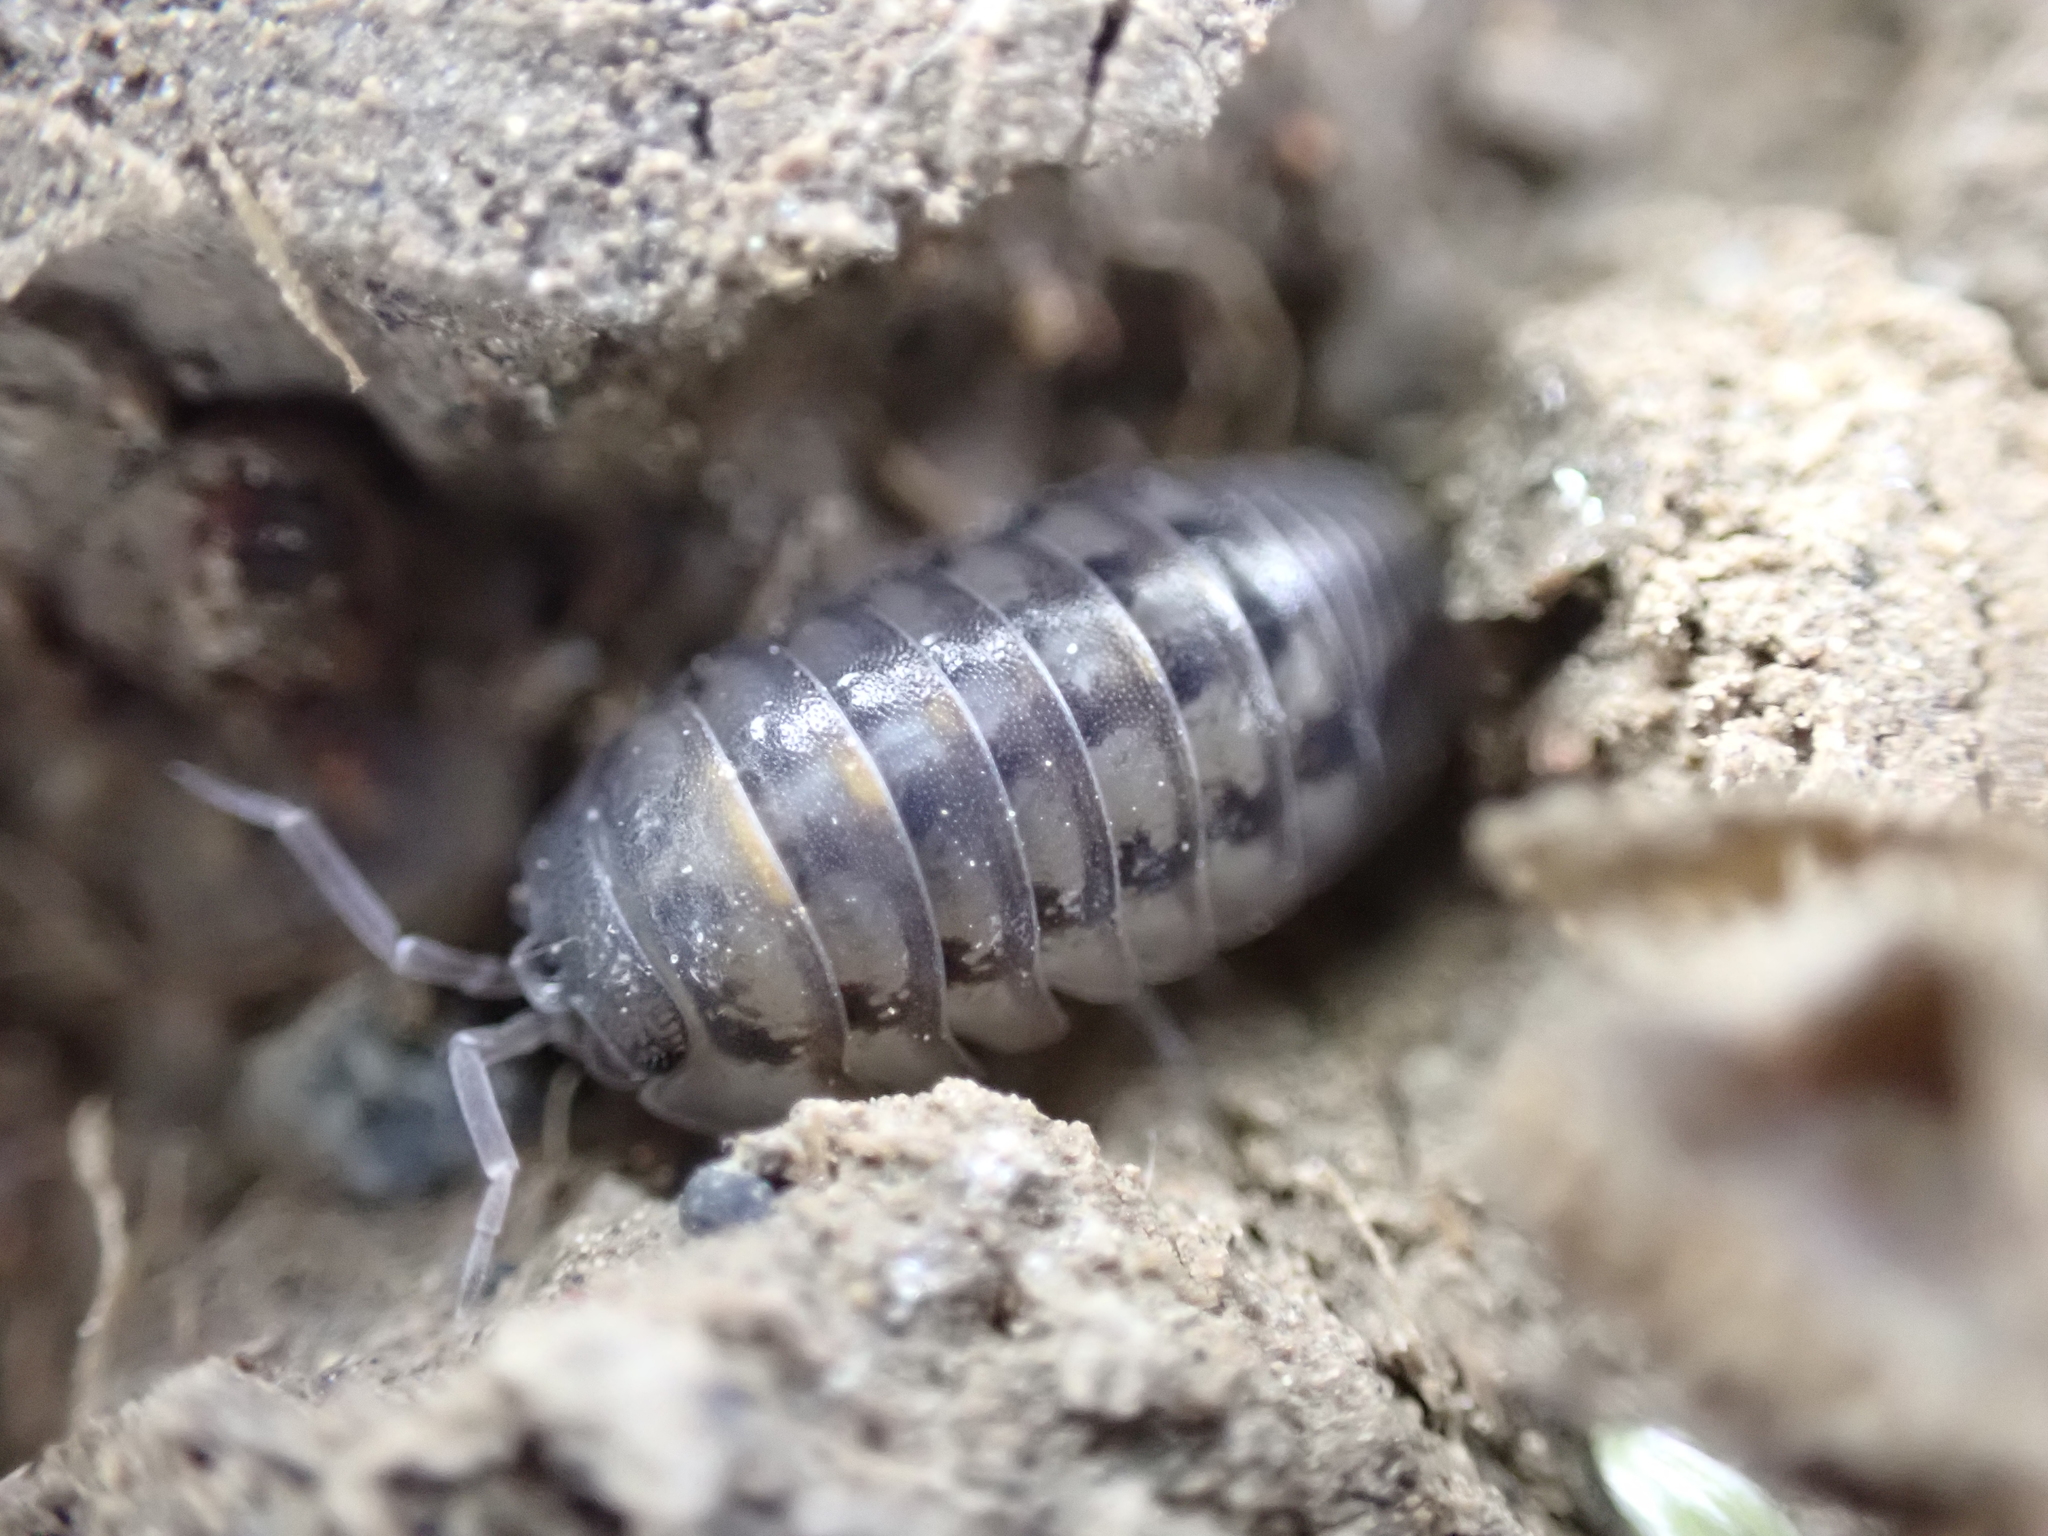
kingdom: Animalia
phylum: Arthropoda
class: Malacostraca
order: Isopoda
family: Armadillidiidae
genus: Armadillidium
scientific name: Armadillidium nasatum
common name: Isopod
